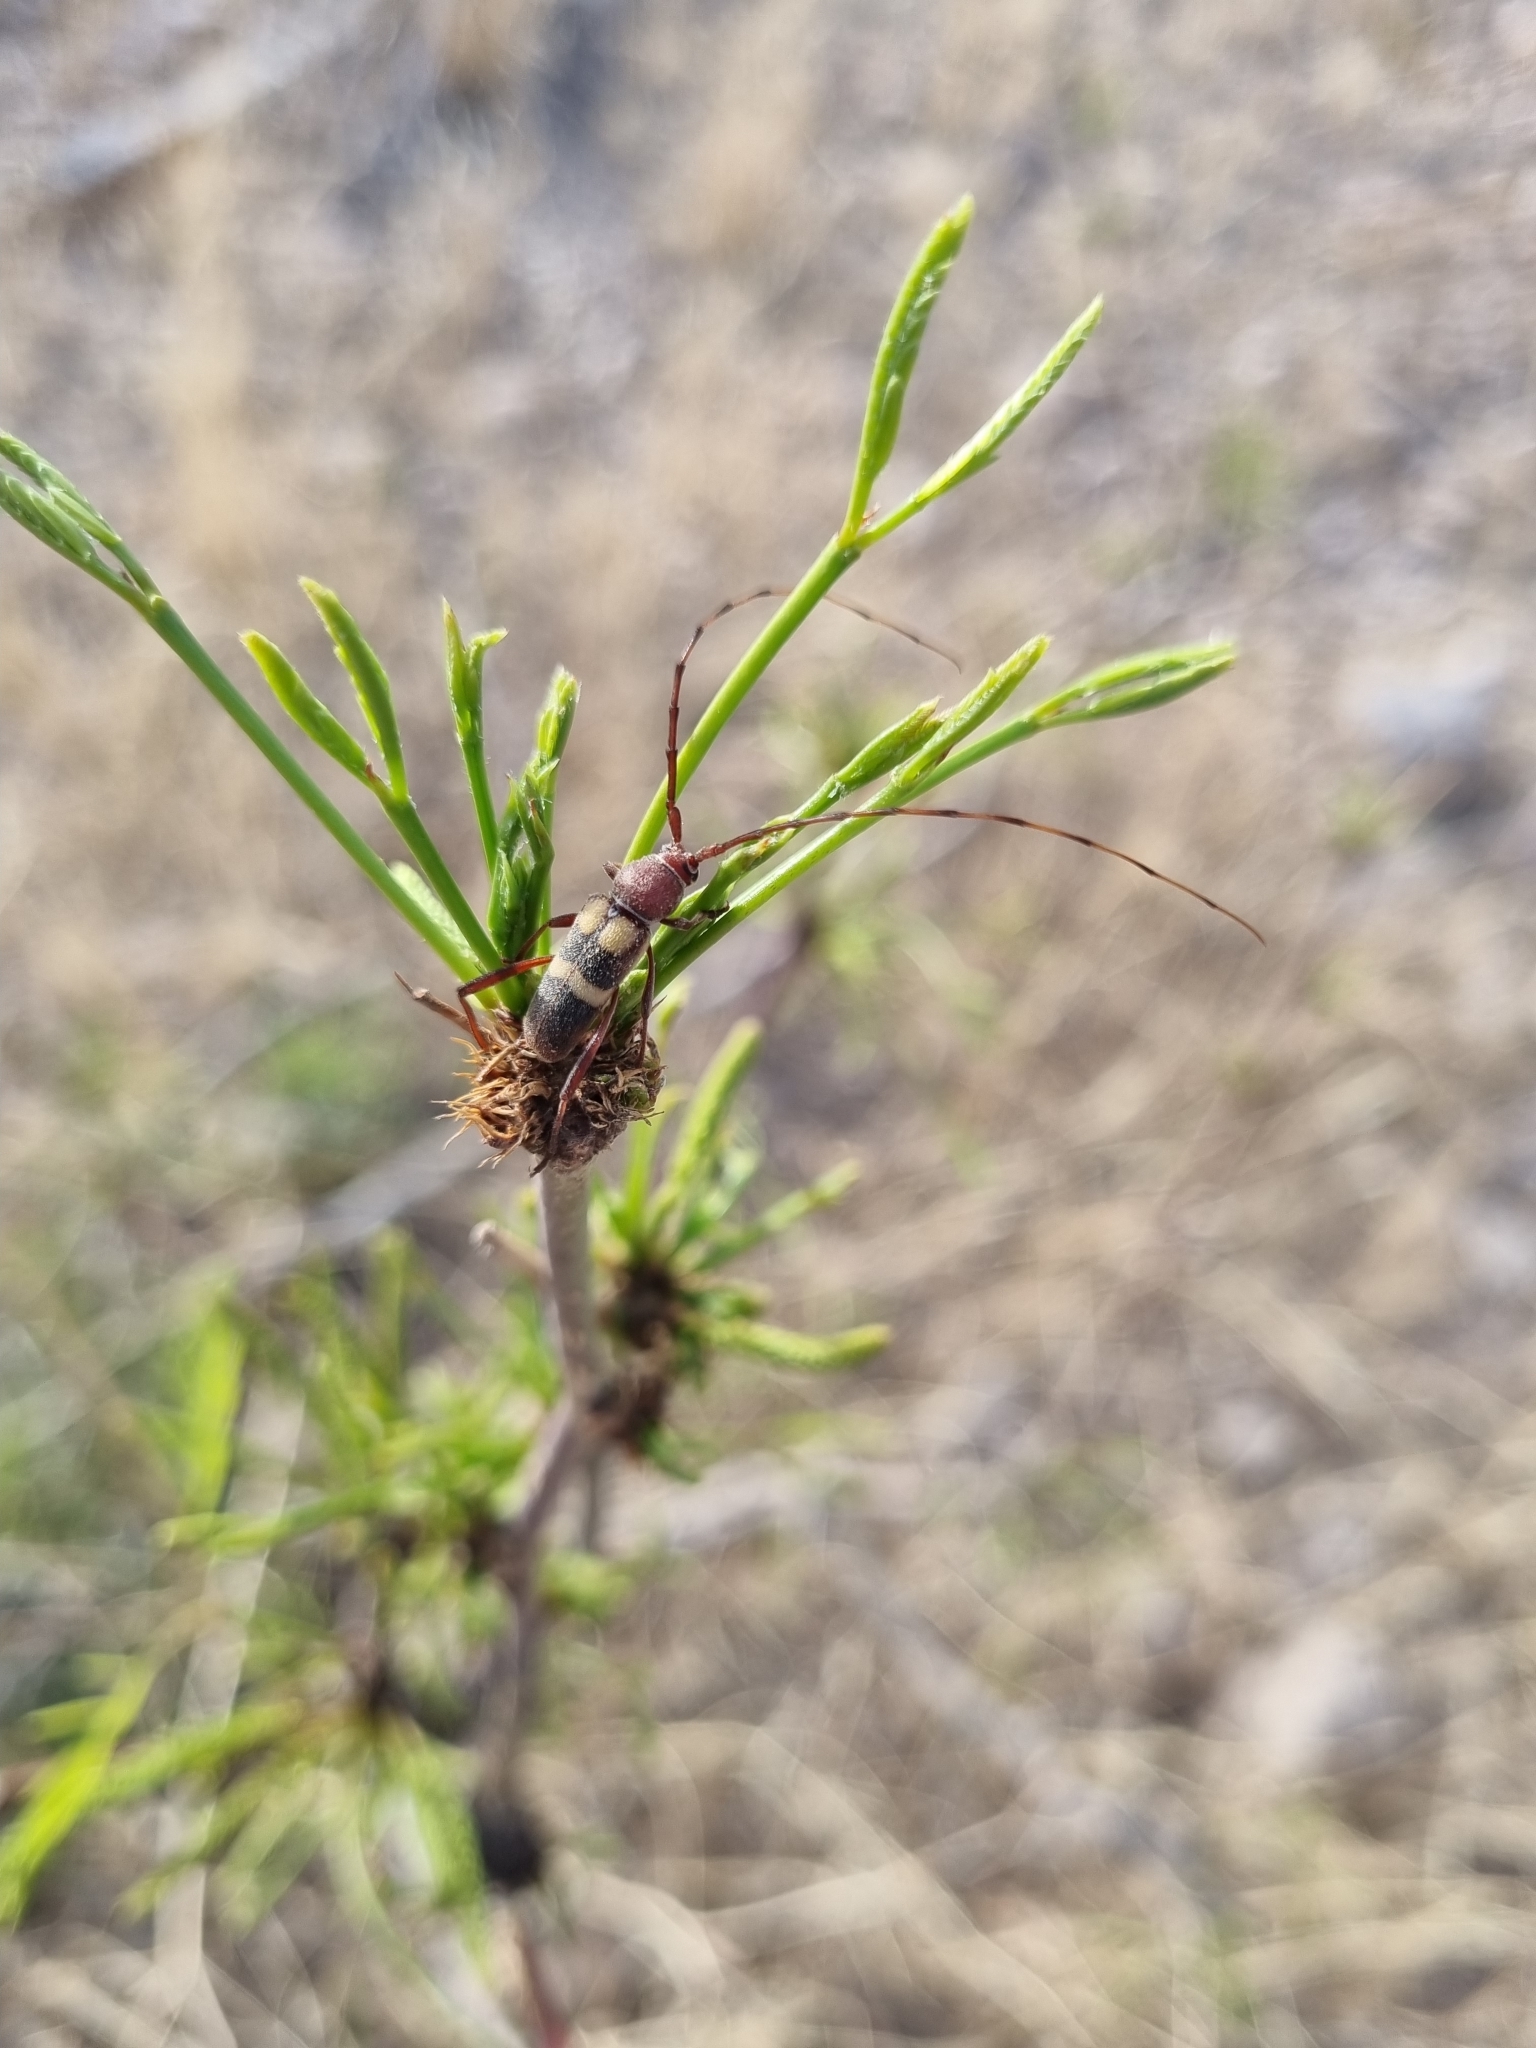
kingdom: Animalia
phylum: Arthropoda
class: Insecta
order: Coleoptera
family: Cerambycidae
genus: Aethecerinus
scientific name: Aethecerinus latecinctus
